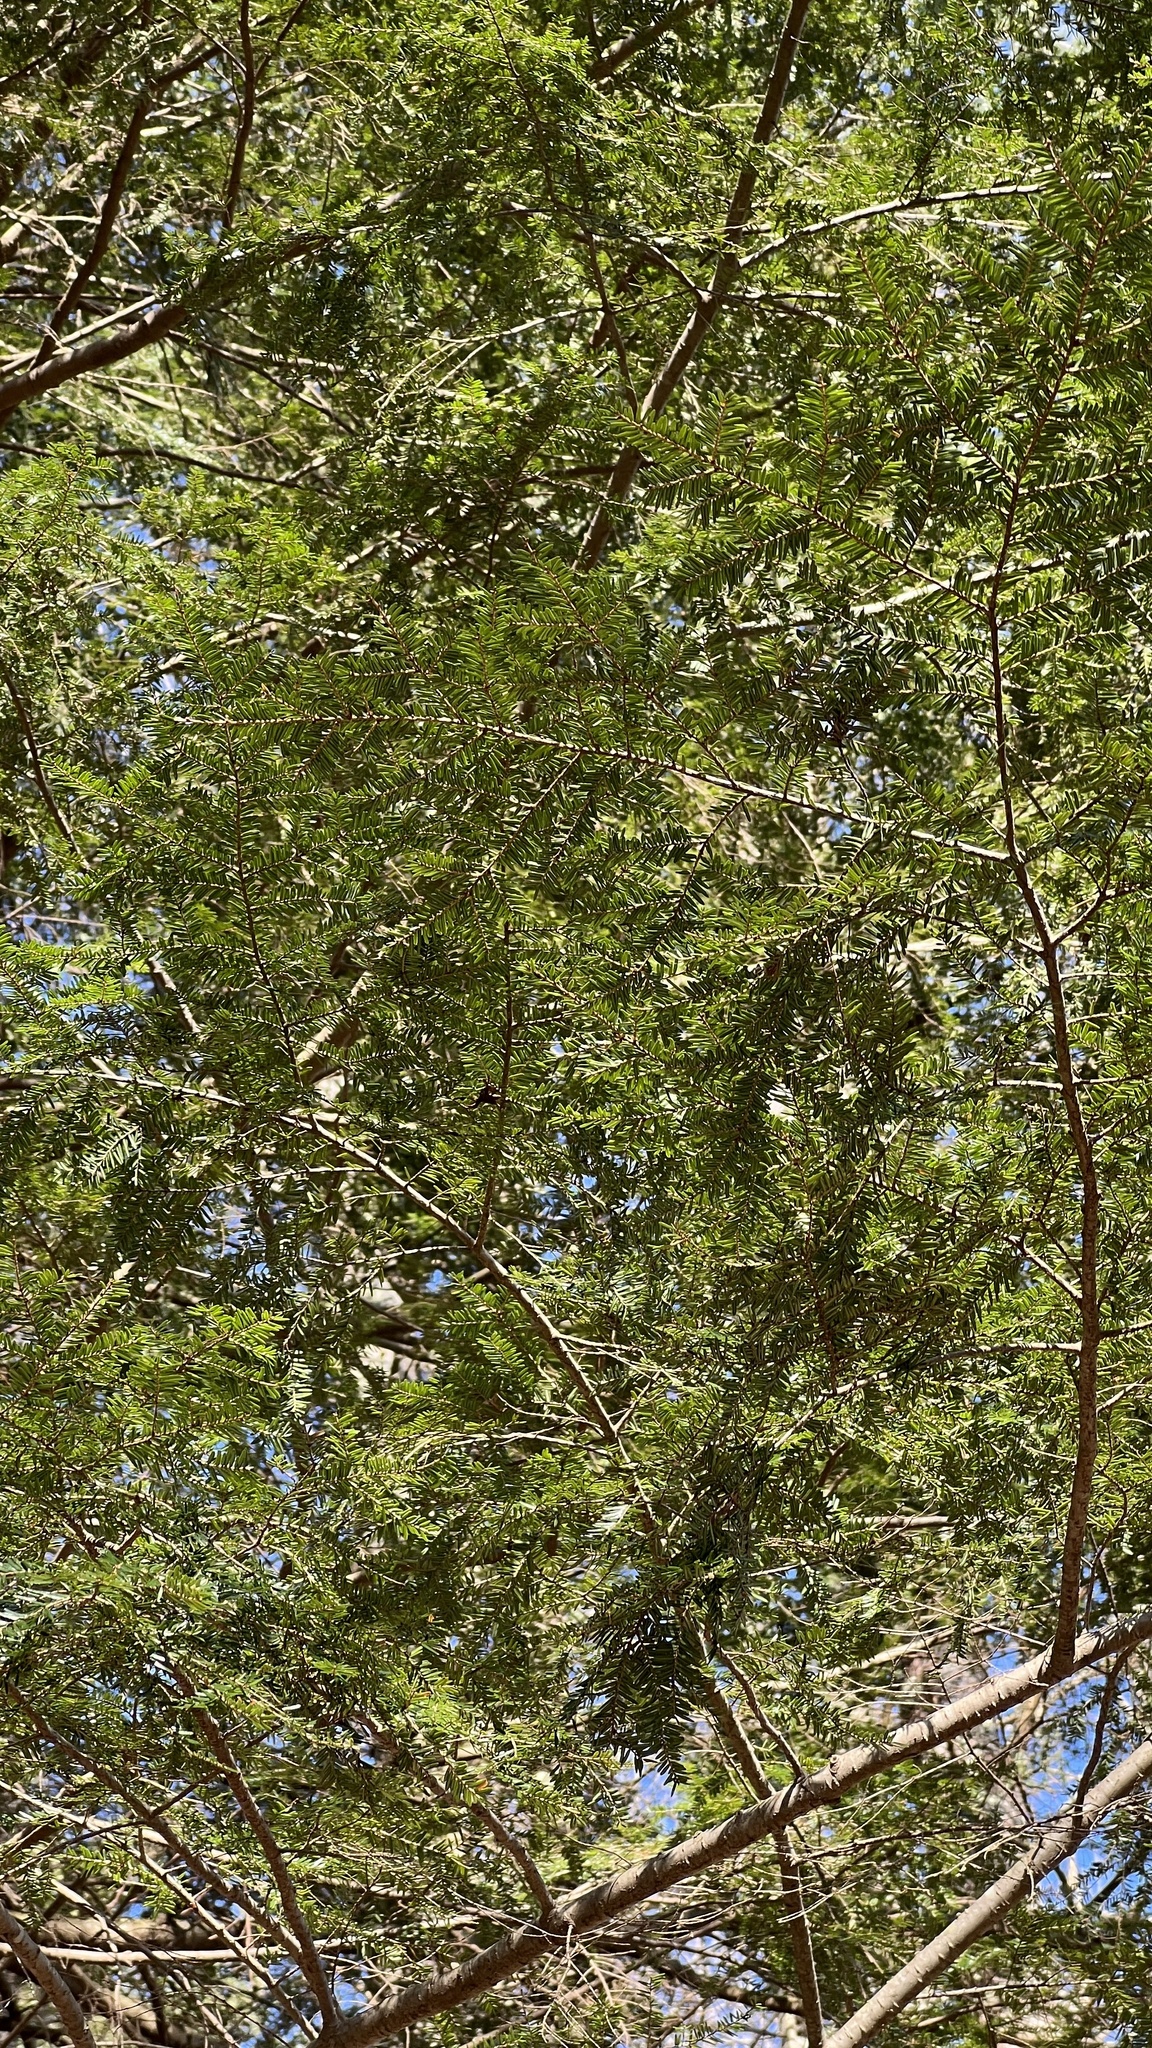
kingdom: Plantae
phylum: Tracheophyta
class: Pinopsida
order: Pinales
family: Pinaceae
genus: Tsuga
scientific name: Tsuga canadensis
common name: Eastern hemlock
